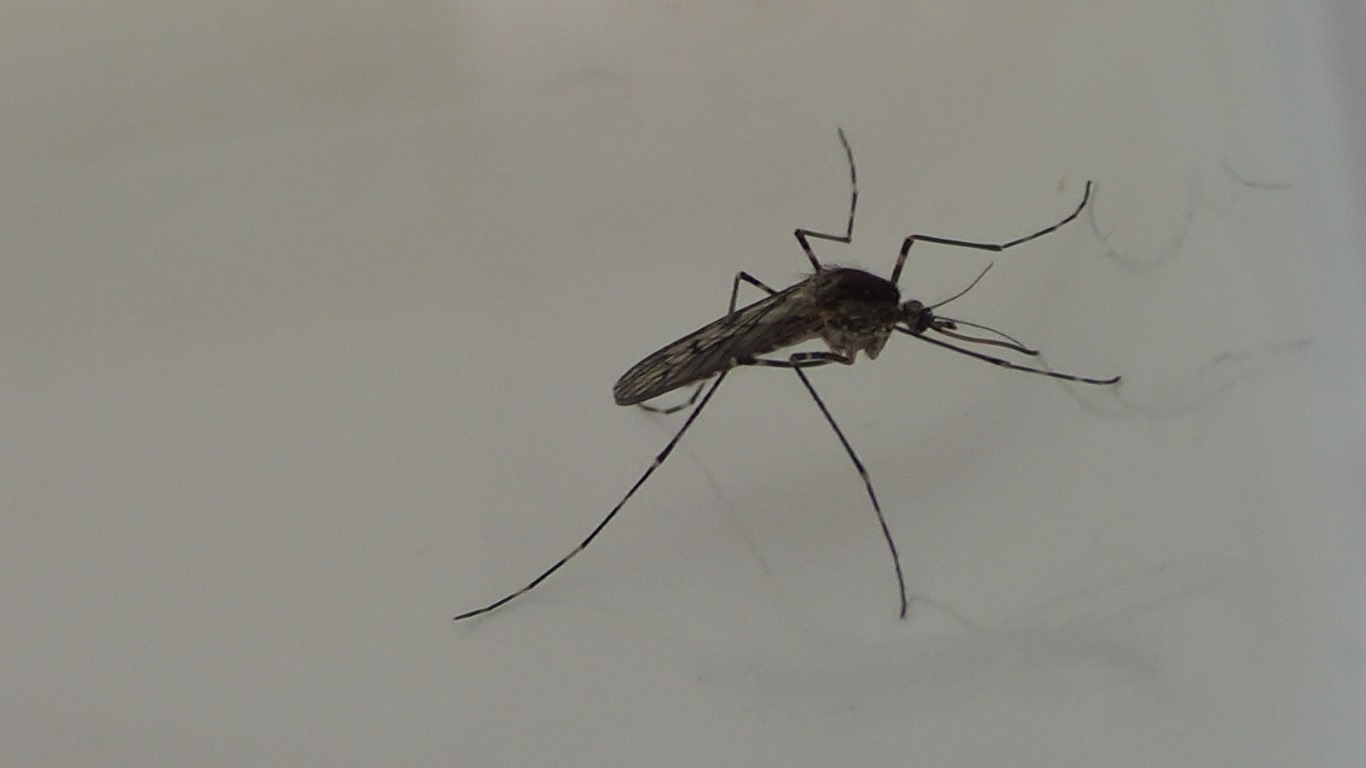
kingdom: Animalia
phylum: Arthropoda
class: Insecta
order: Diptera
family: Culicidae
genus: Culiseta
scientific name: Culiseta annulata
